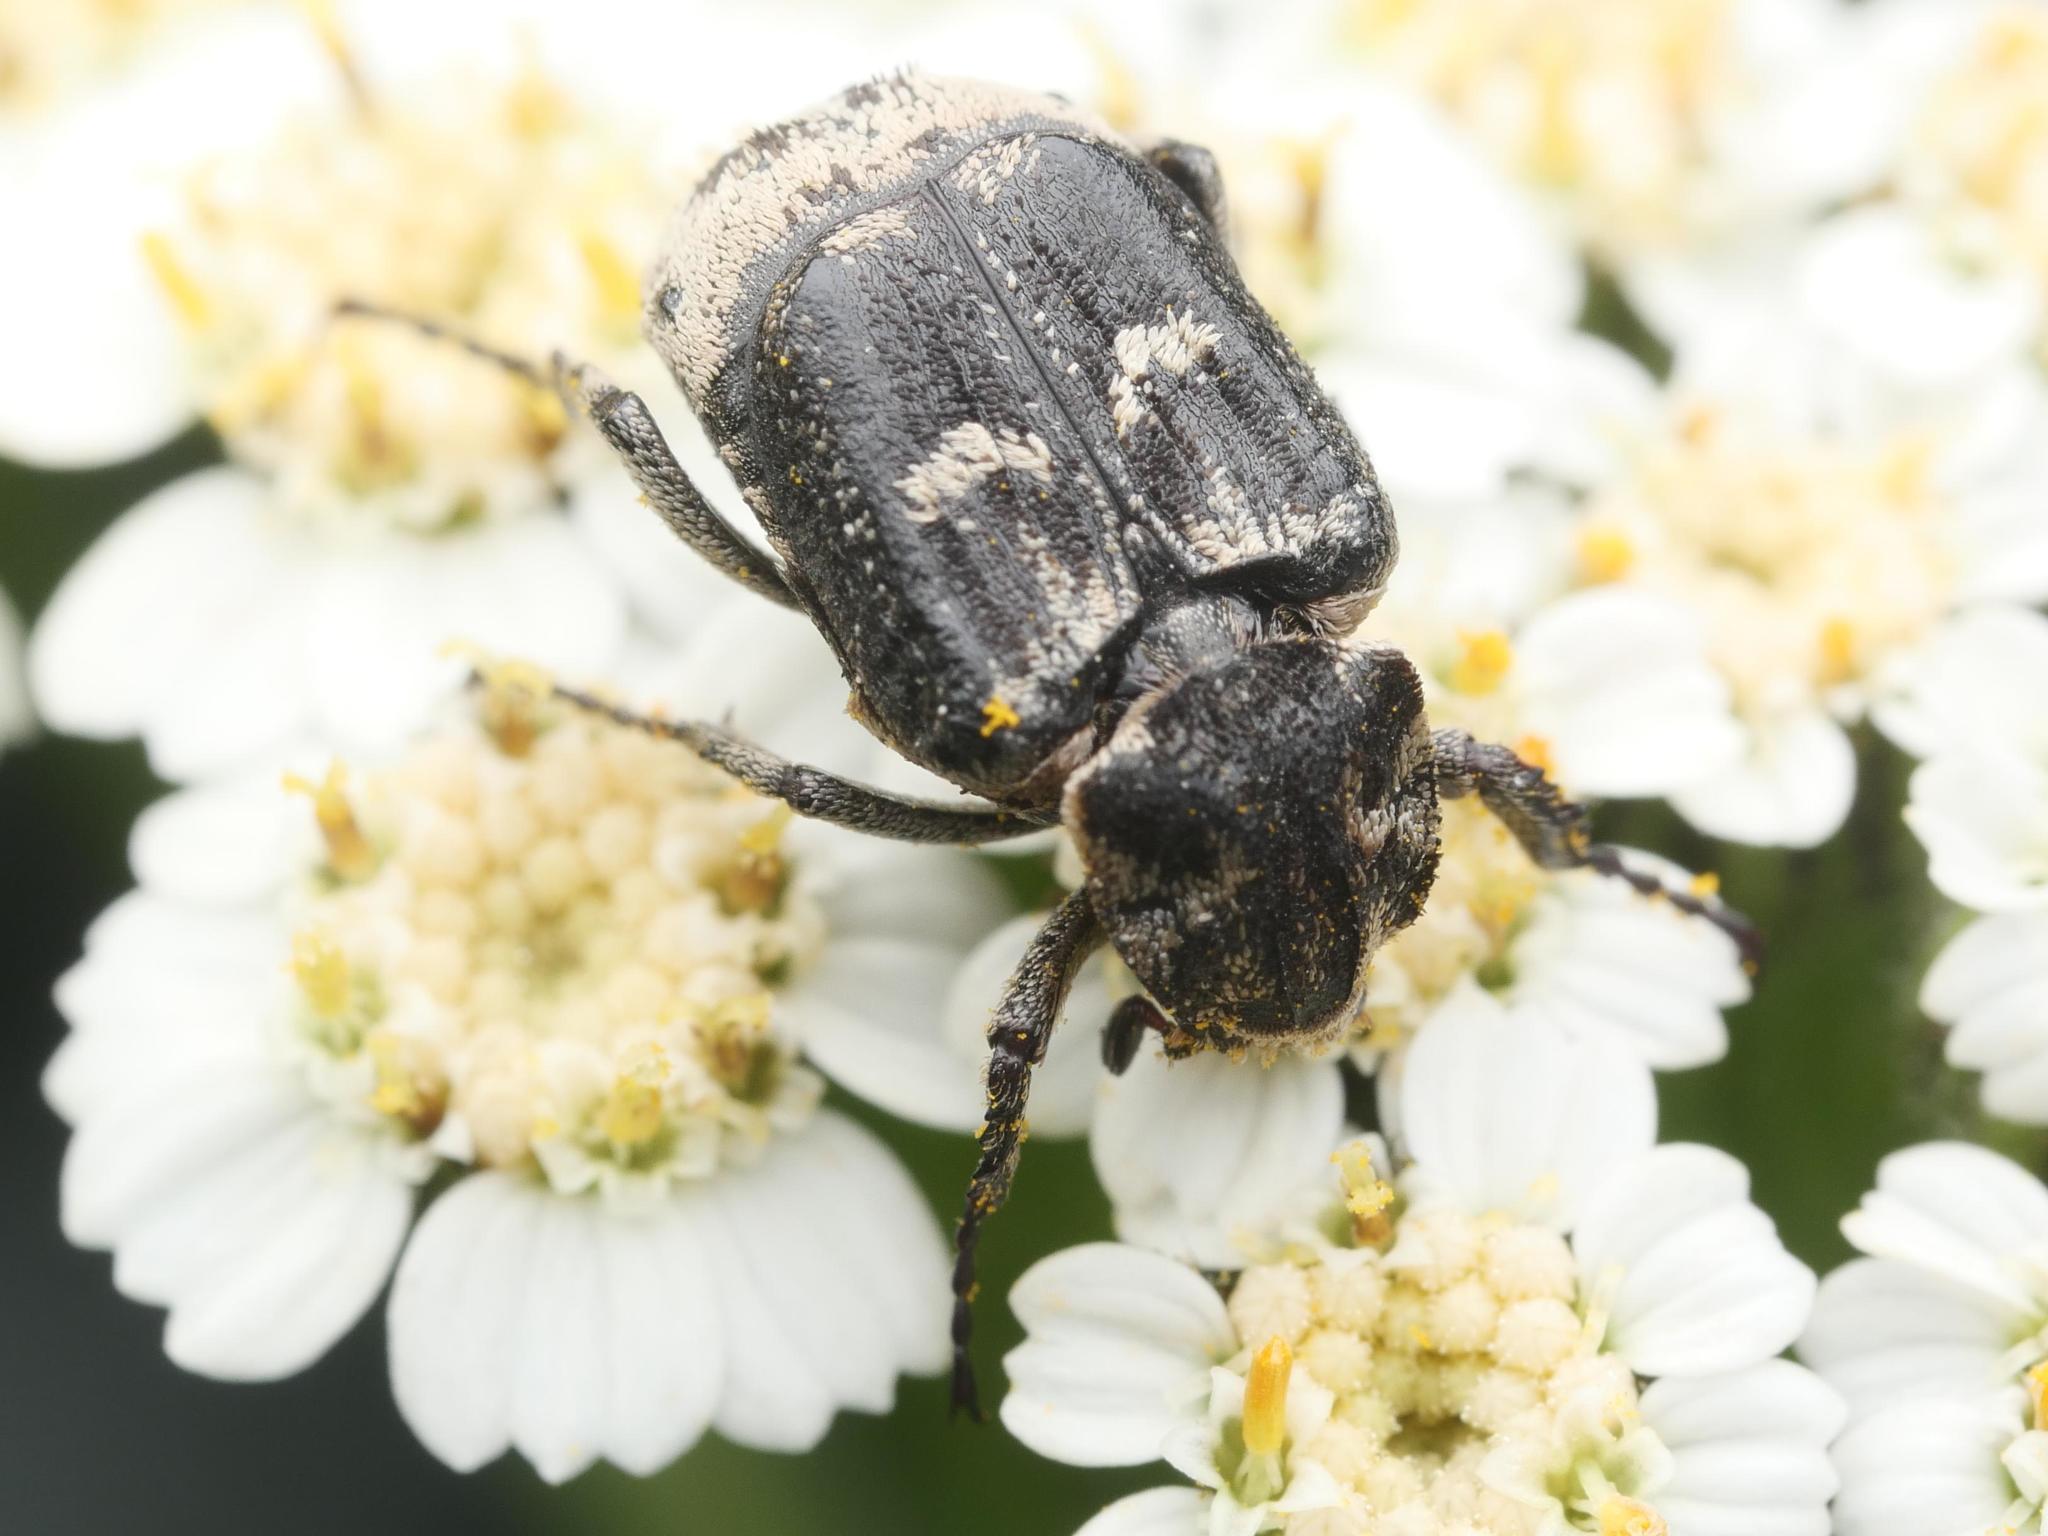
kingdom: Animalia
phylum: Arthropoda
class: Insecta
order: Coleoptera
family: Scarabaeidae
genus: Valgus
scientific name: Valgus hemipterus
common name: Bug flower chafer
